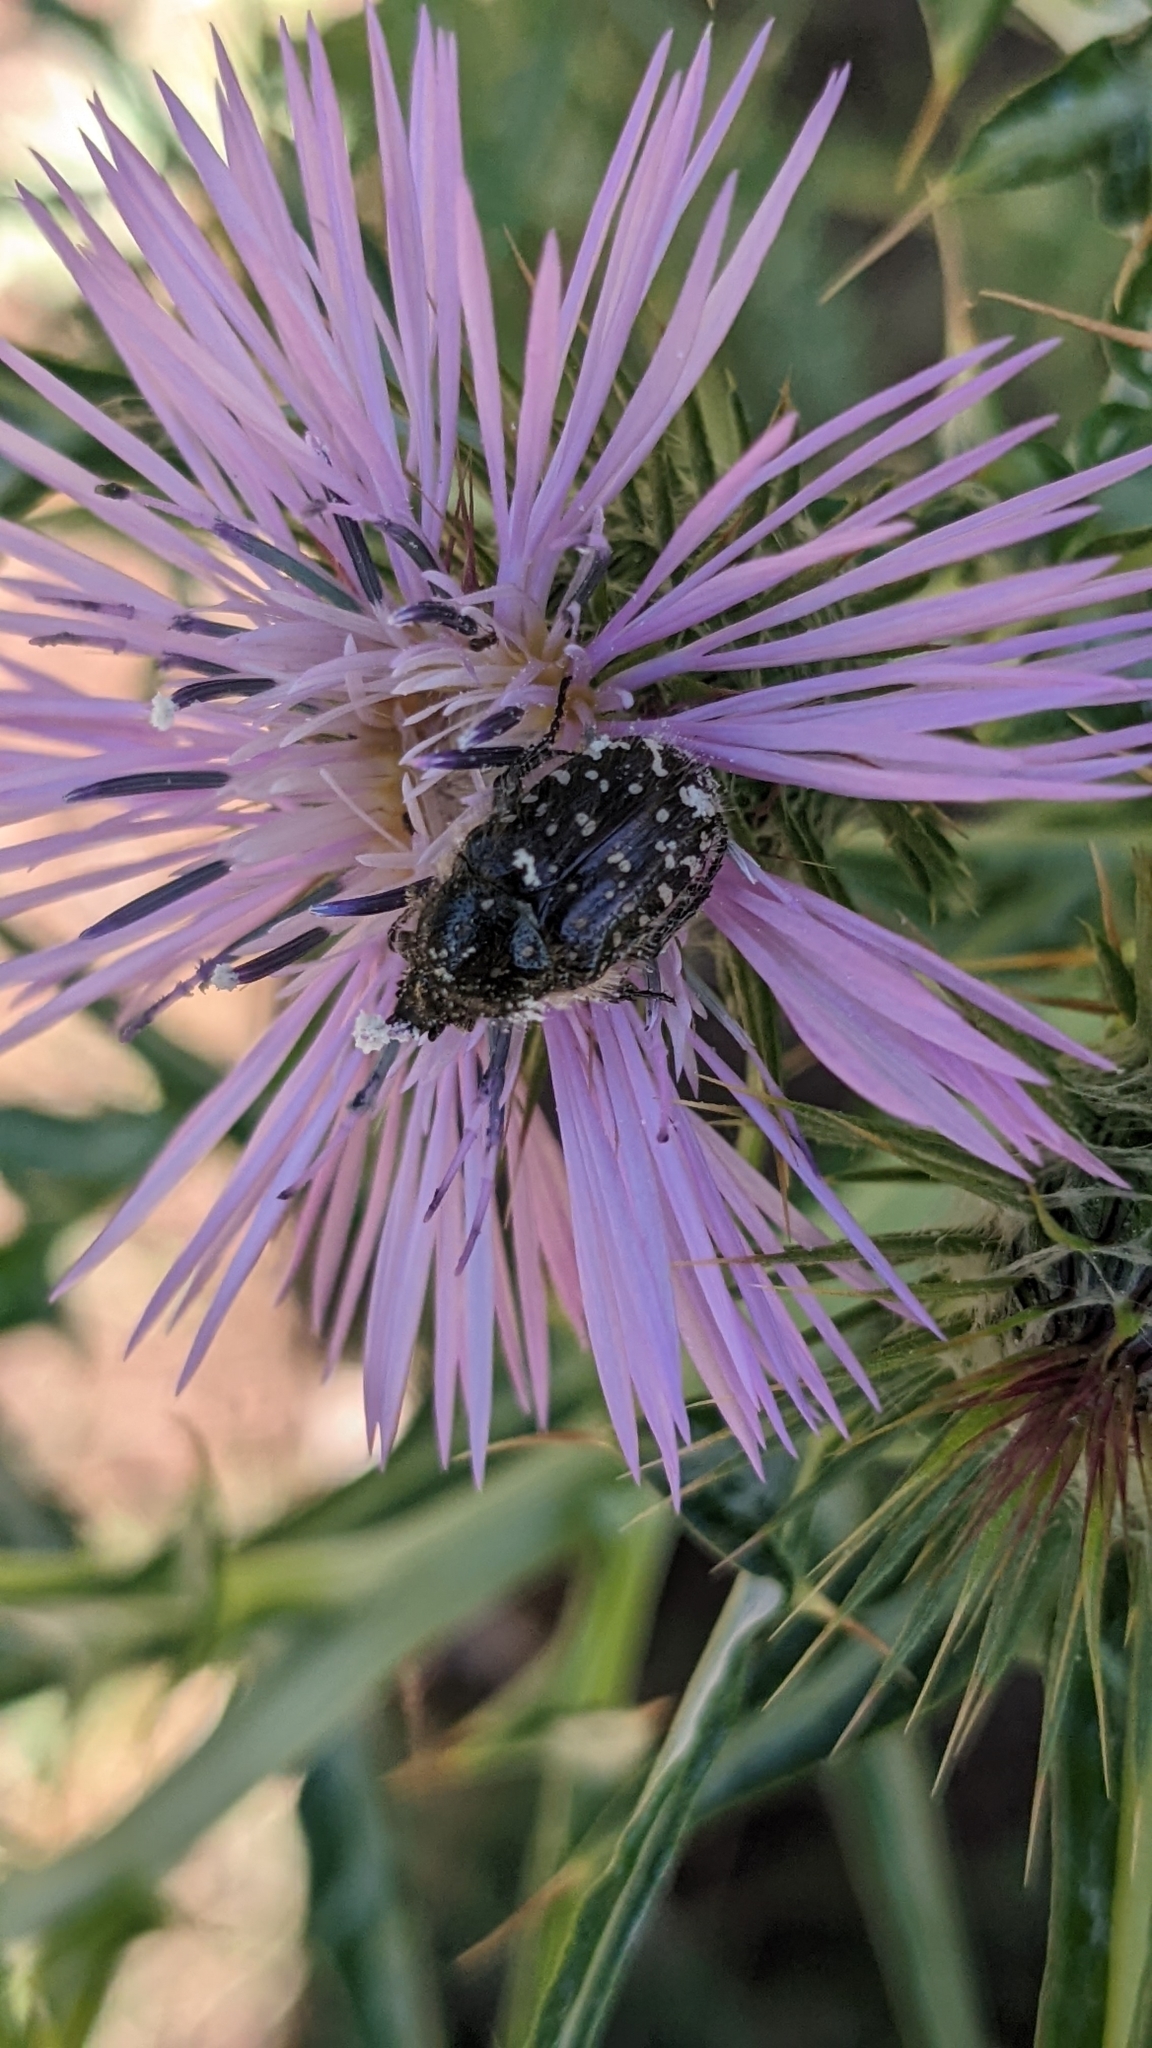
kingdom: Animalia
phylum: Arthropoda
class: Insecta
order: Coleoptera
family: Scarabaeidae
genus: Oxythyrea
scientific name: Oxythyrea funesta
